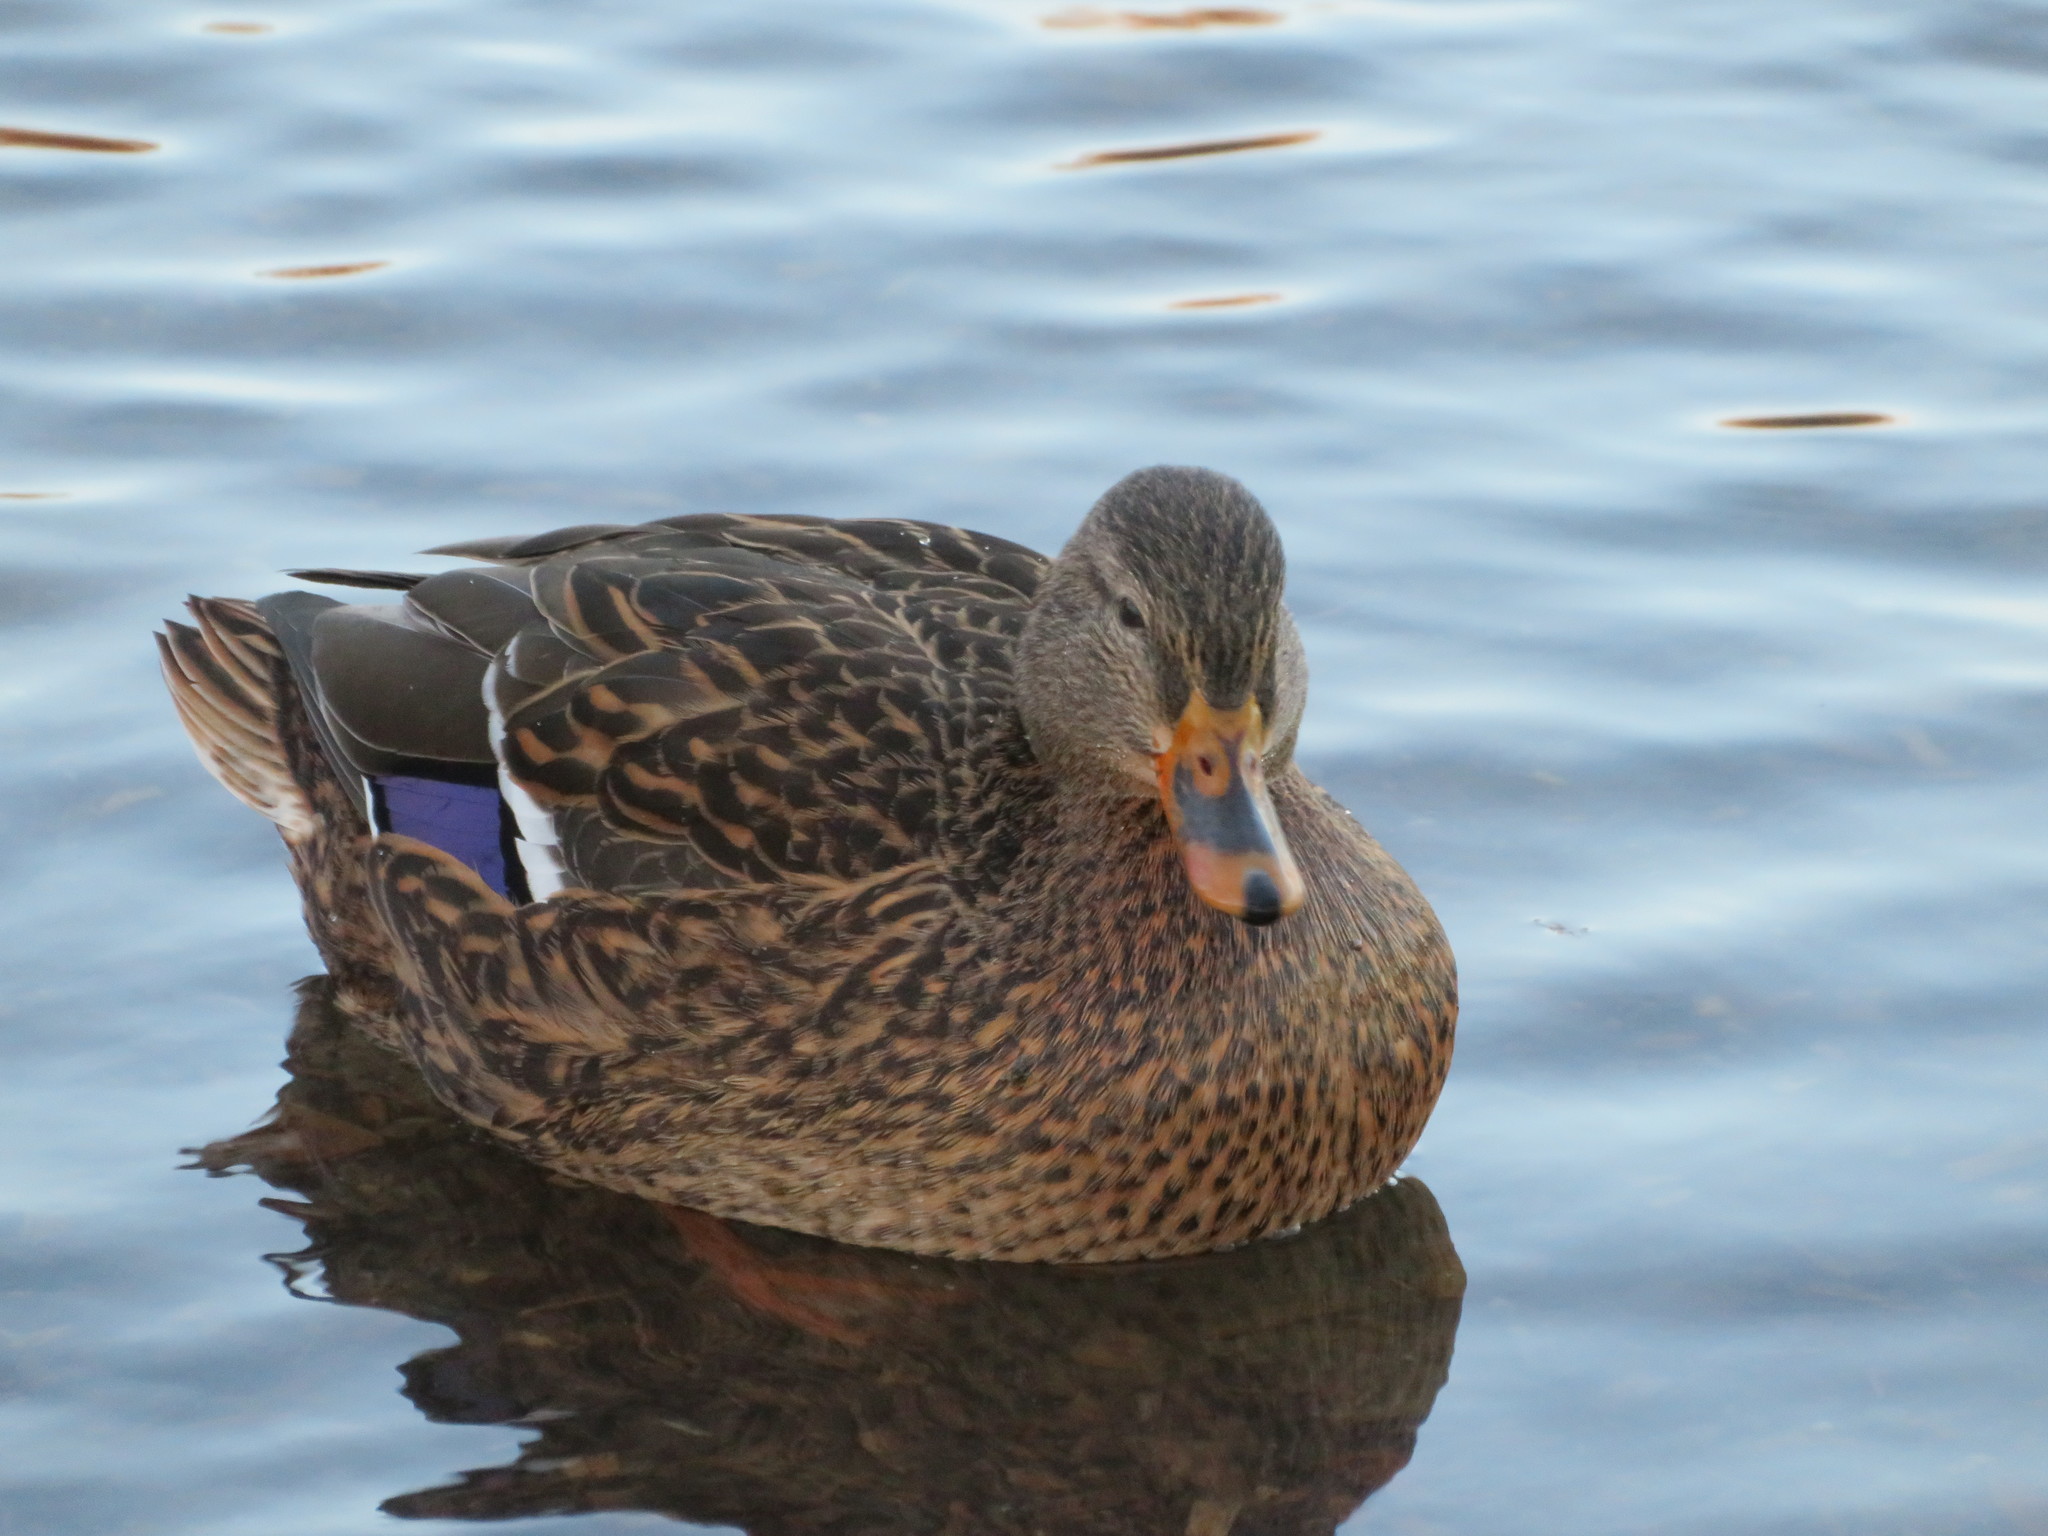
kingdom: Animalia
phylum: Chordata
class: Aves
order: Anseriformes
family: Anatidae
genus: Anas
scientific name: Anas platyrhynchos
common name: Mallard
